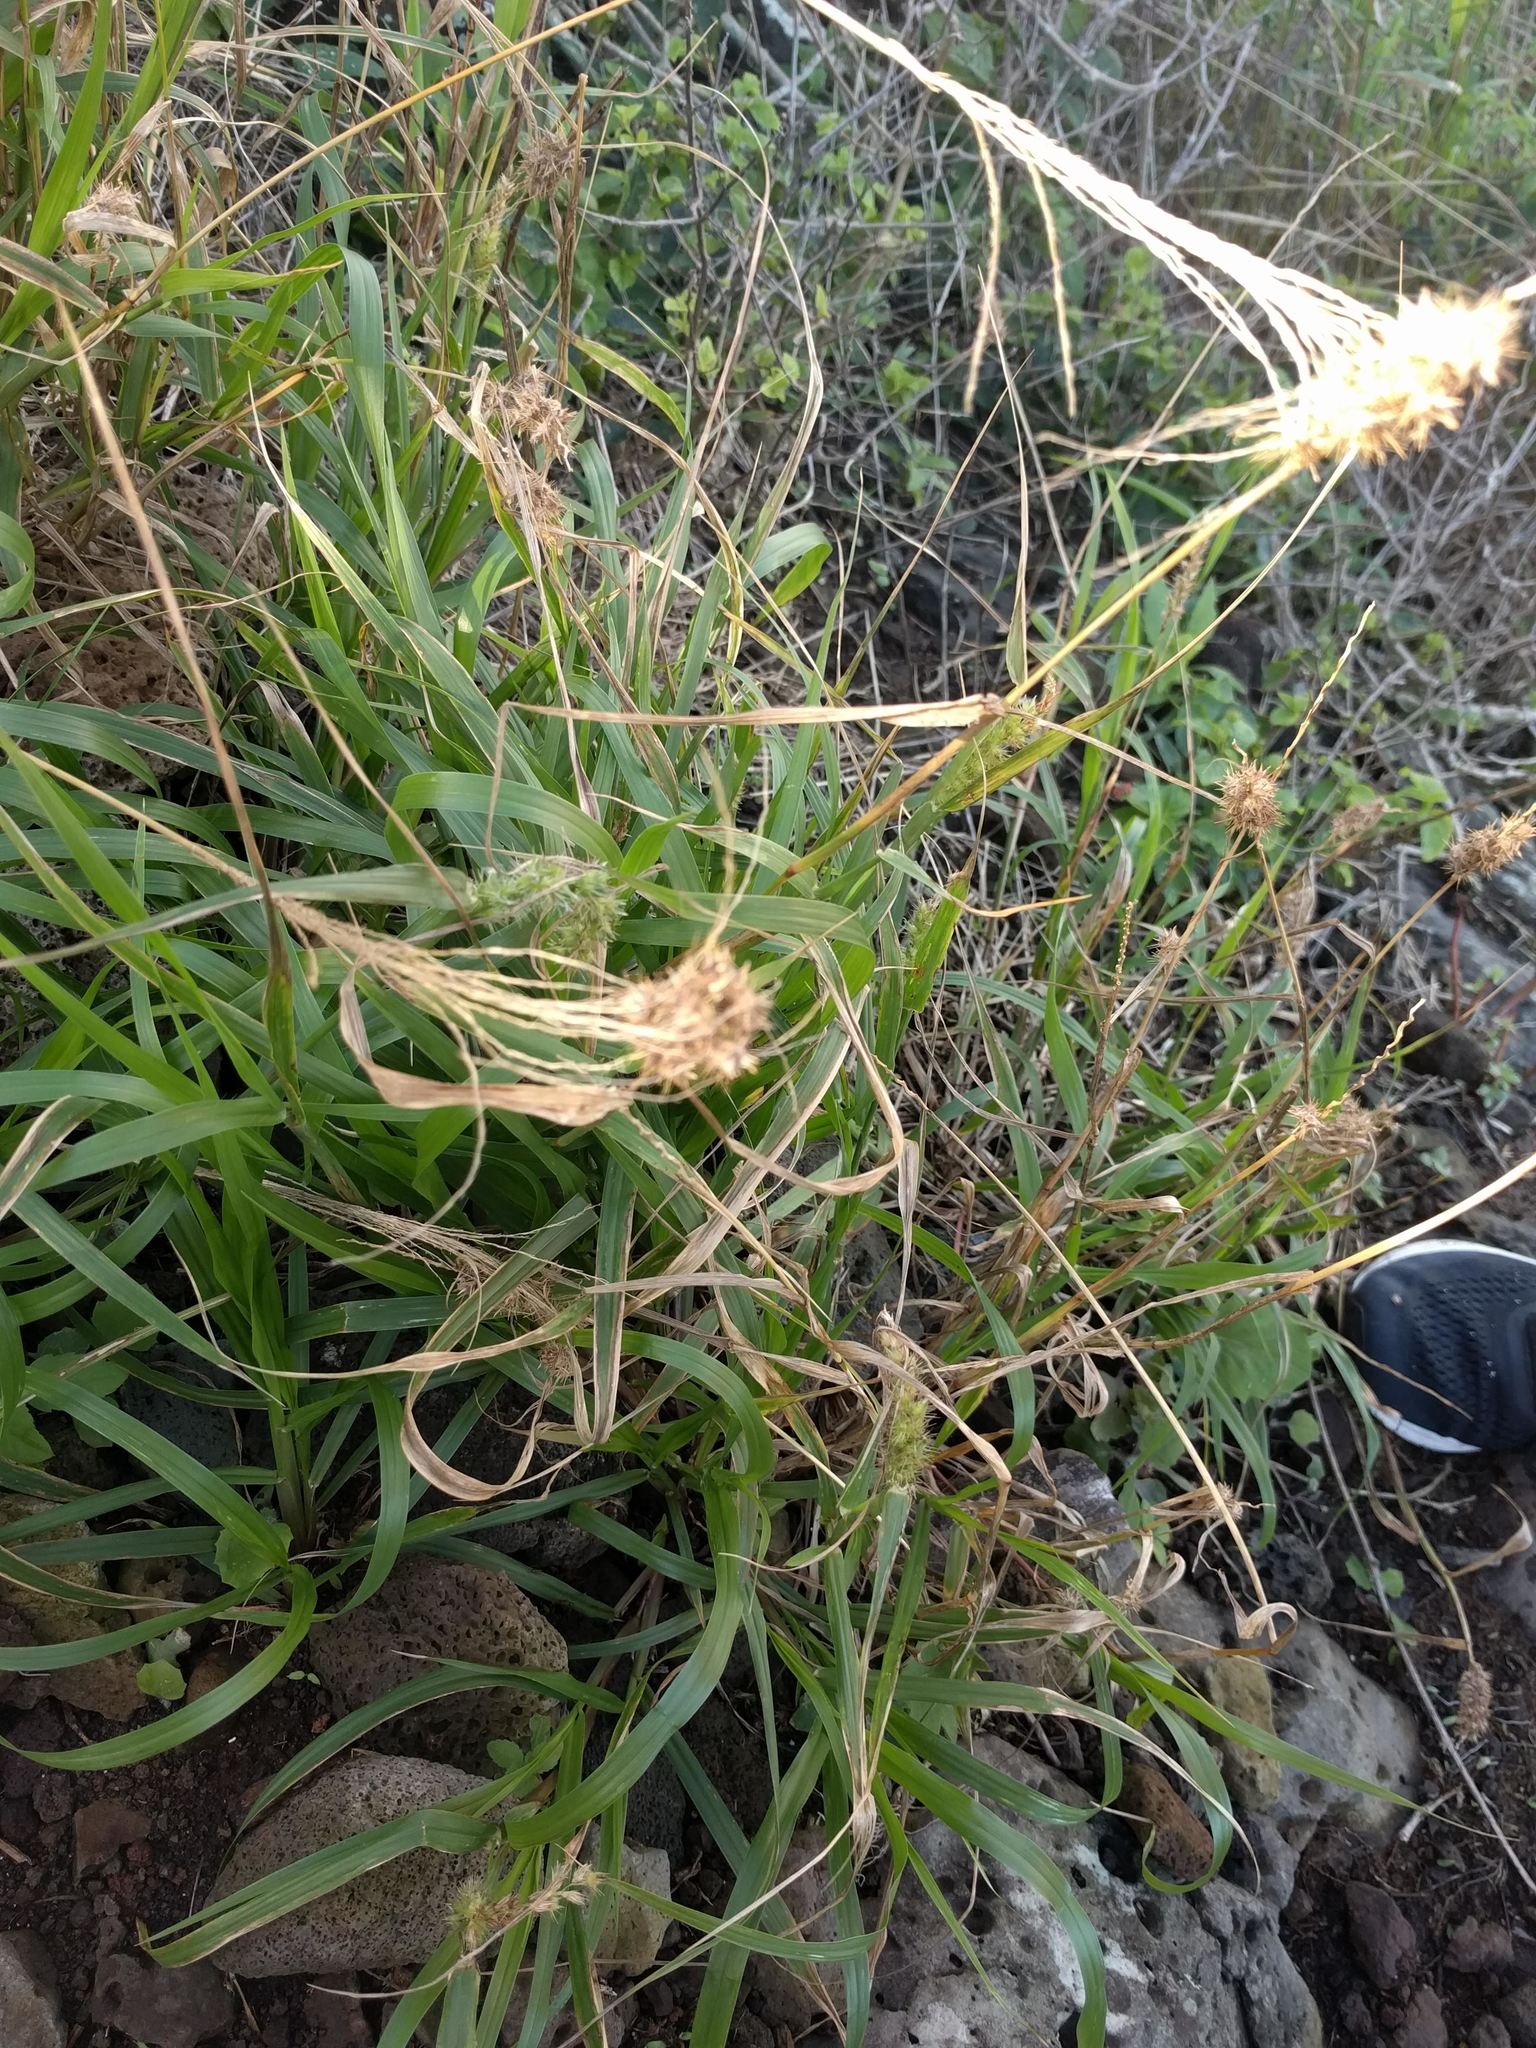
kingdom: Plantae
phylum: Tracheophyta
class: Liliopsida
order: Poales
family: Poaceae
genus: Cenchrus
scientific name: Cenchrus echinatus
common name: Southern sandbur
